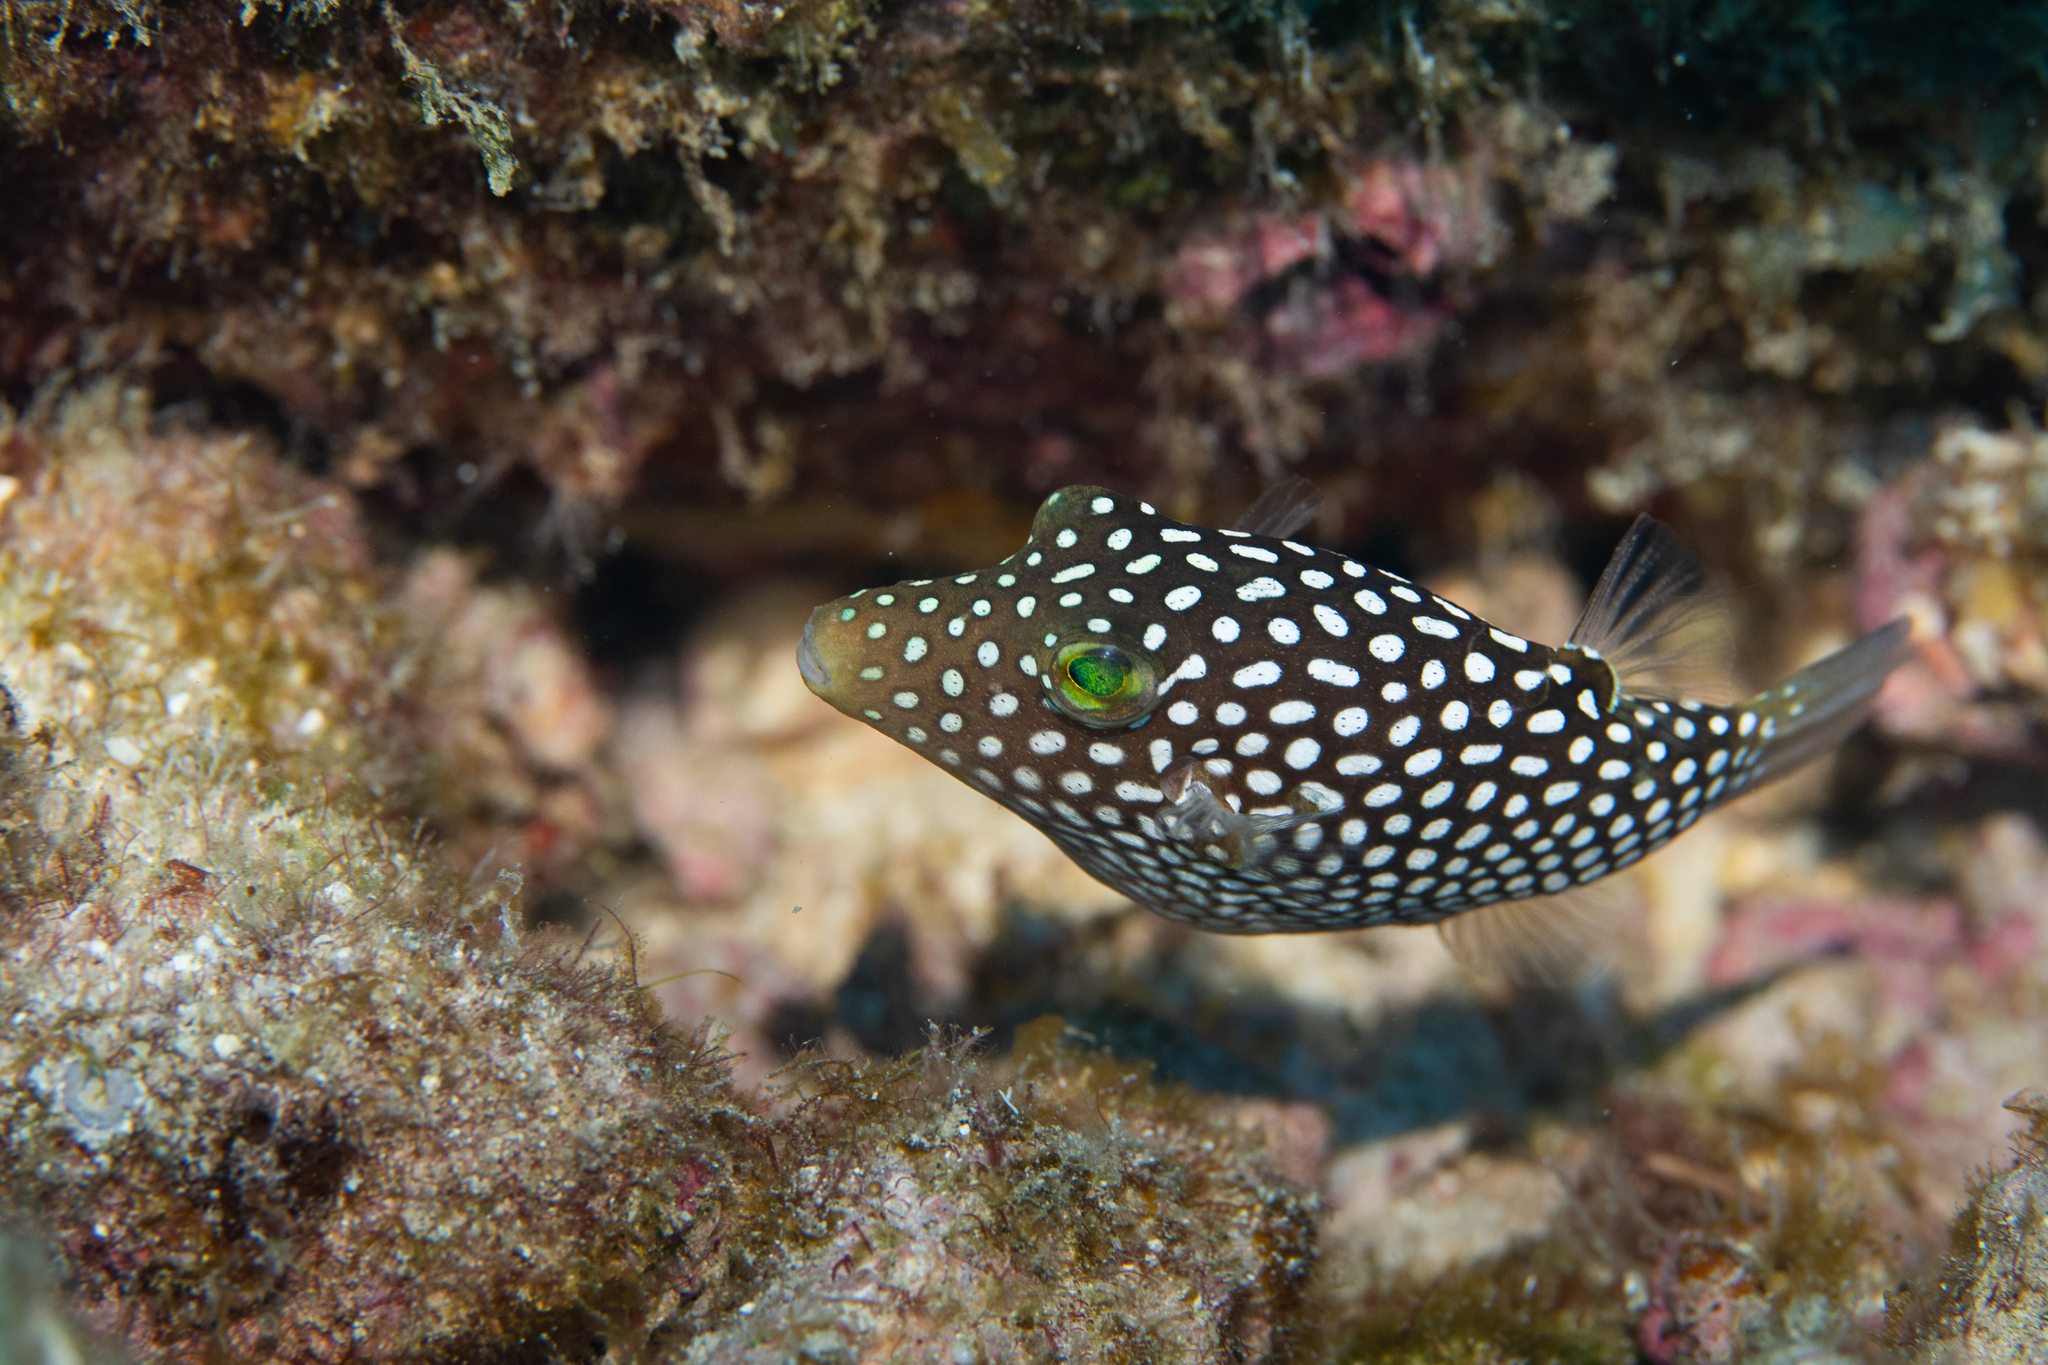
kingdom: Animalia
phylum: Chordata
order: Tetraodontiformes
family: Tetraodontidae
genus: Canthigaster
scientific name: Canthigaster jactator
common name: Hawaiian whitespotted toby
